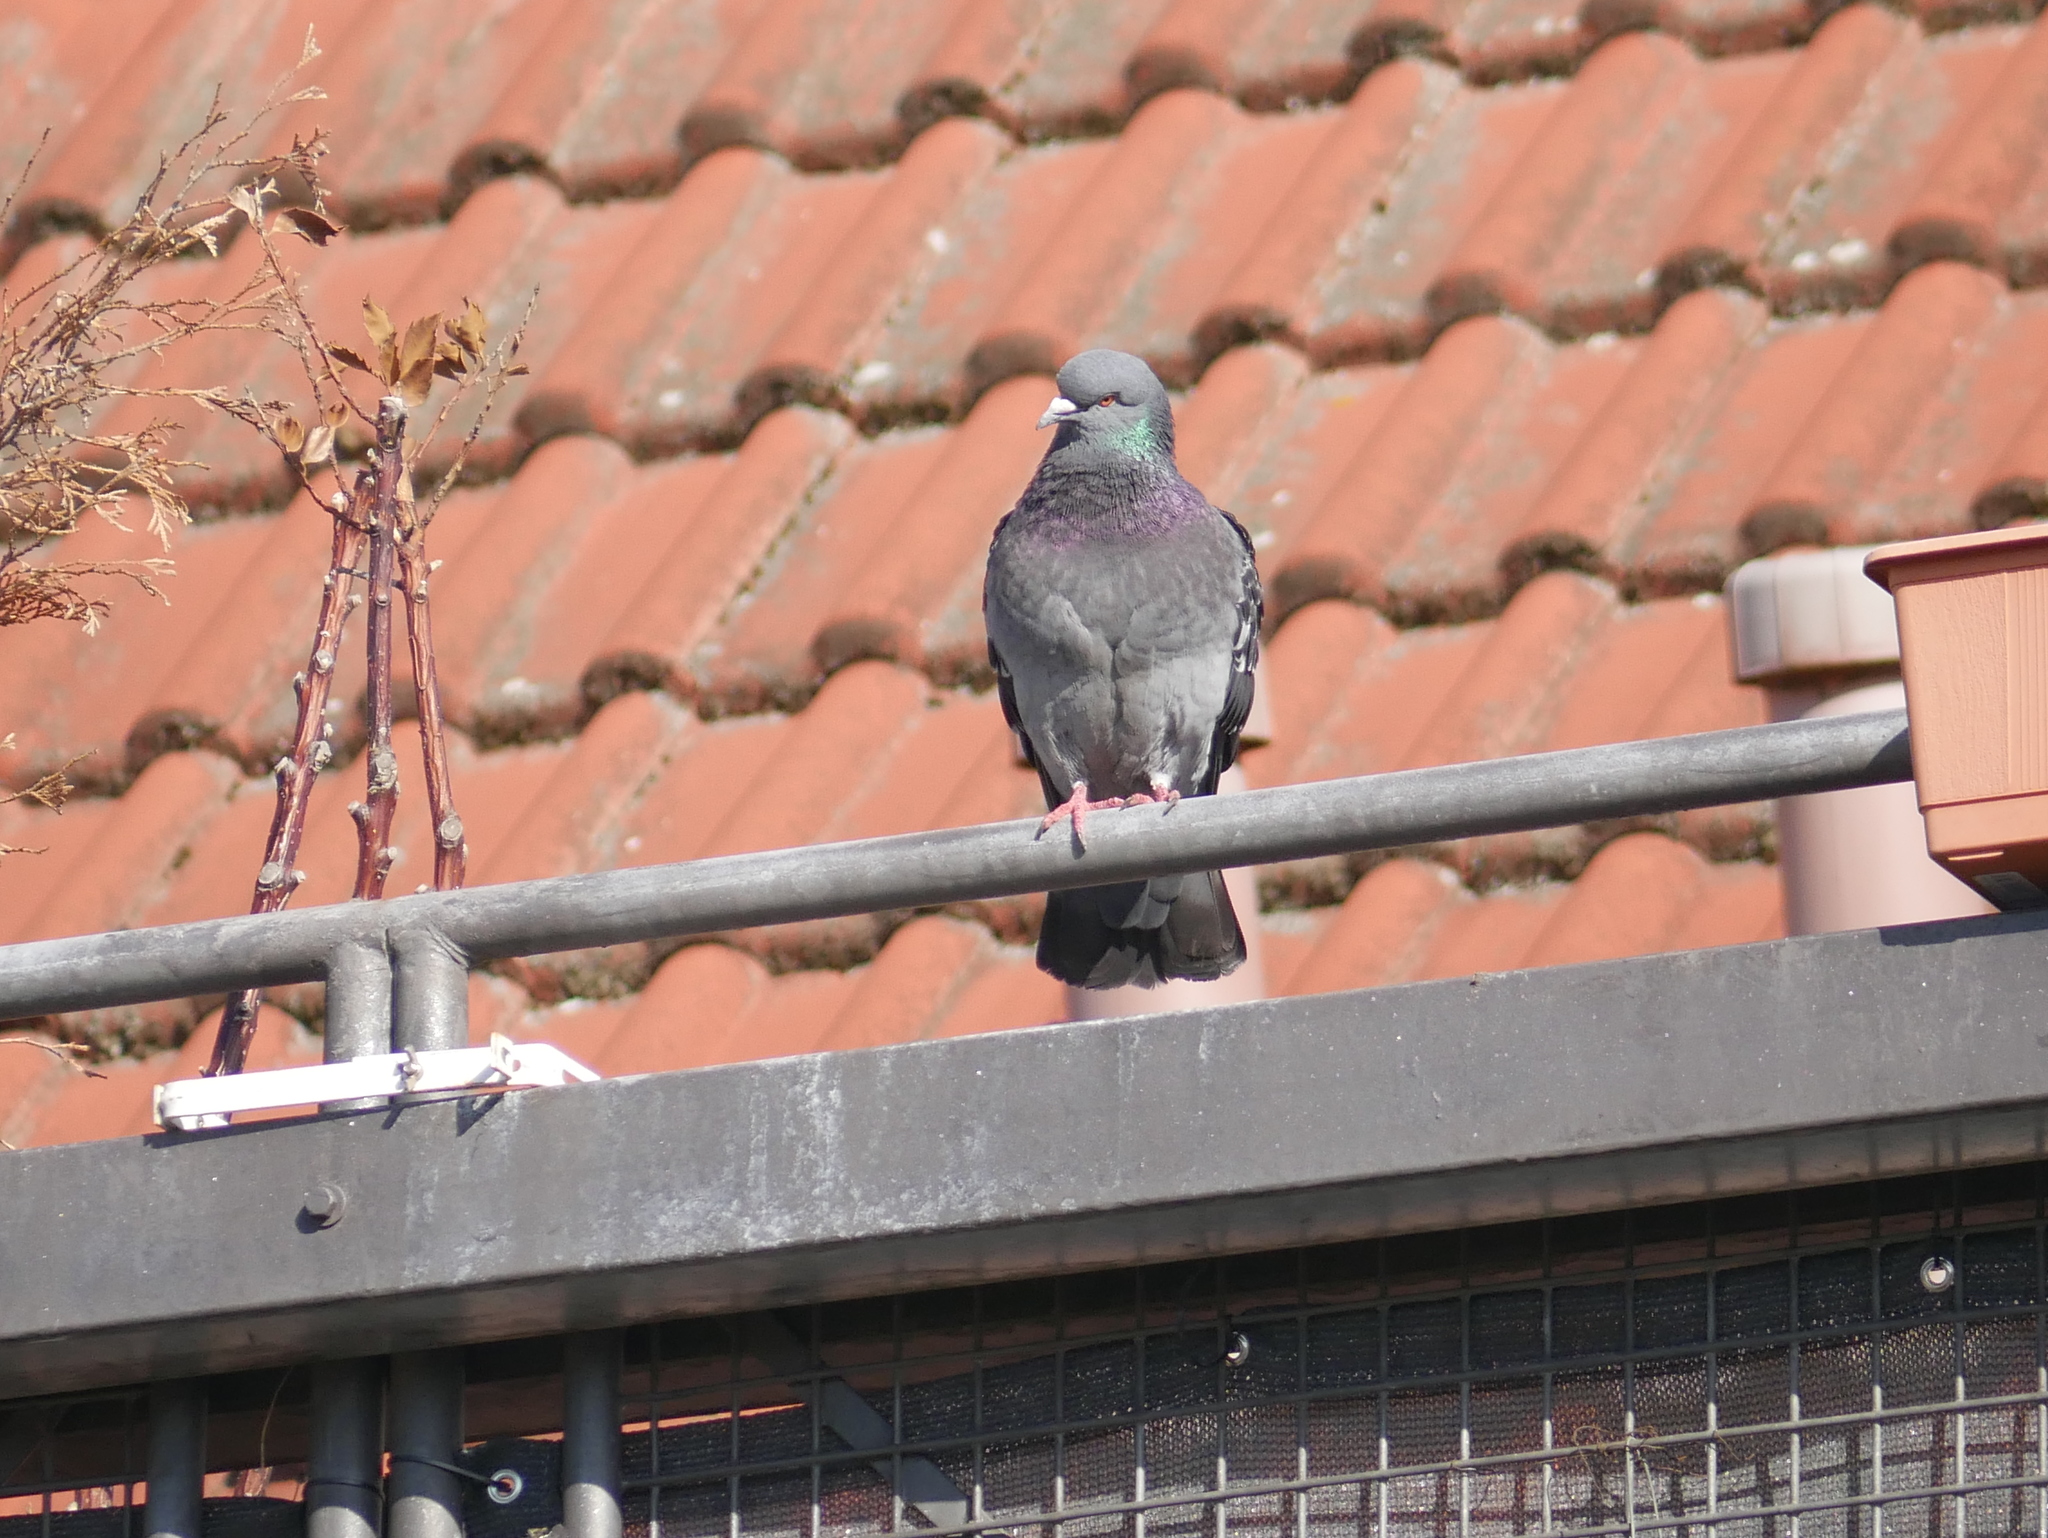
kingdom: Animalia
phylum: Chordata
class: Aves
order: Columbiformes
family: Columbidae
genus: Columba
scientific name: Columba livia
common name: Rock pigeon
